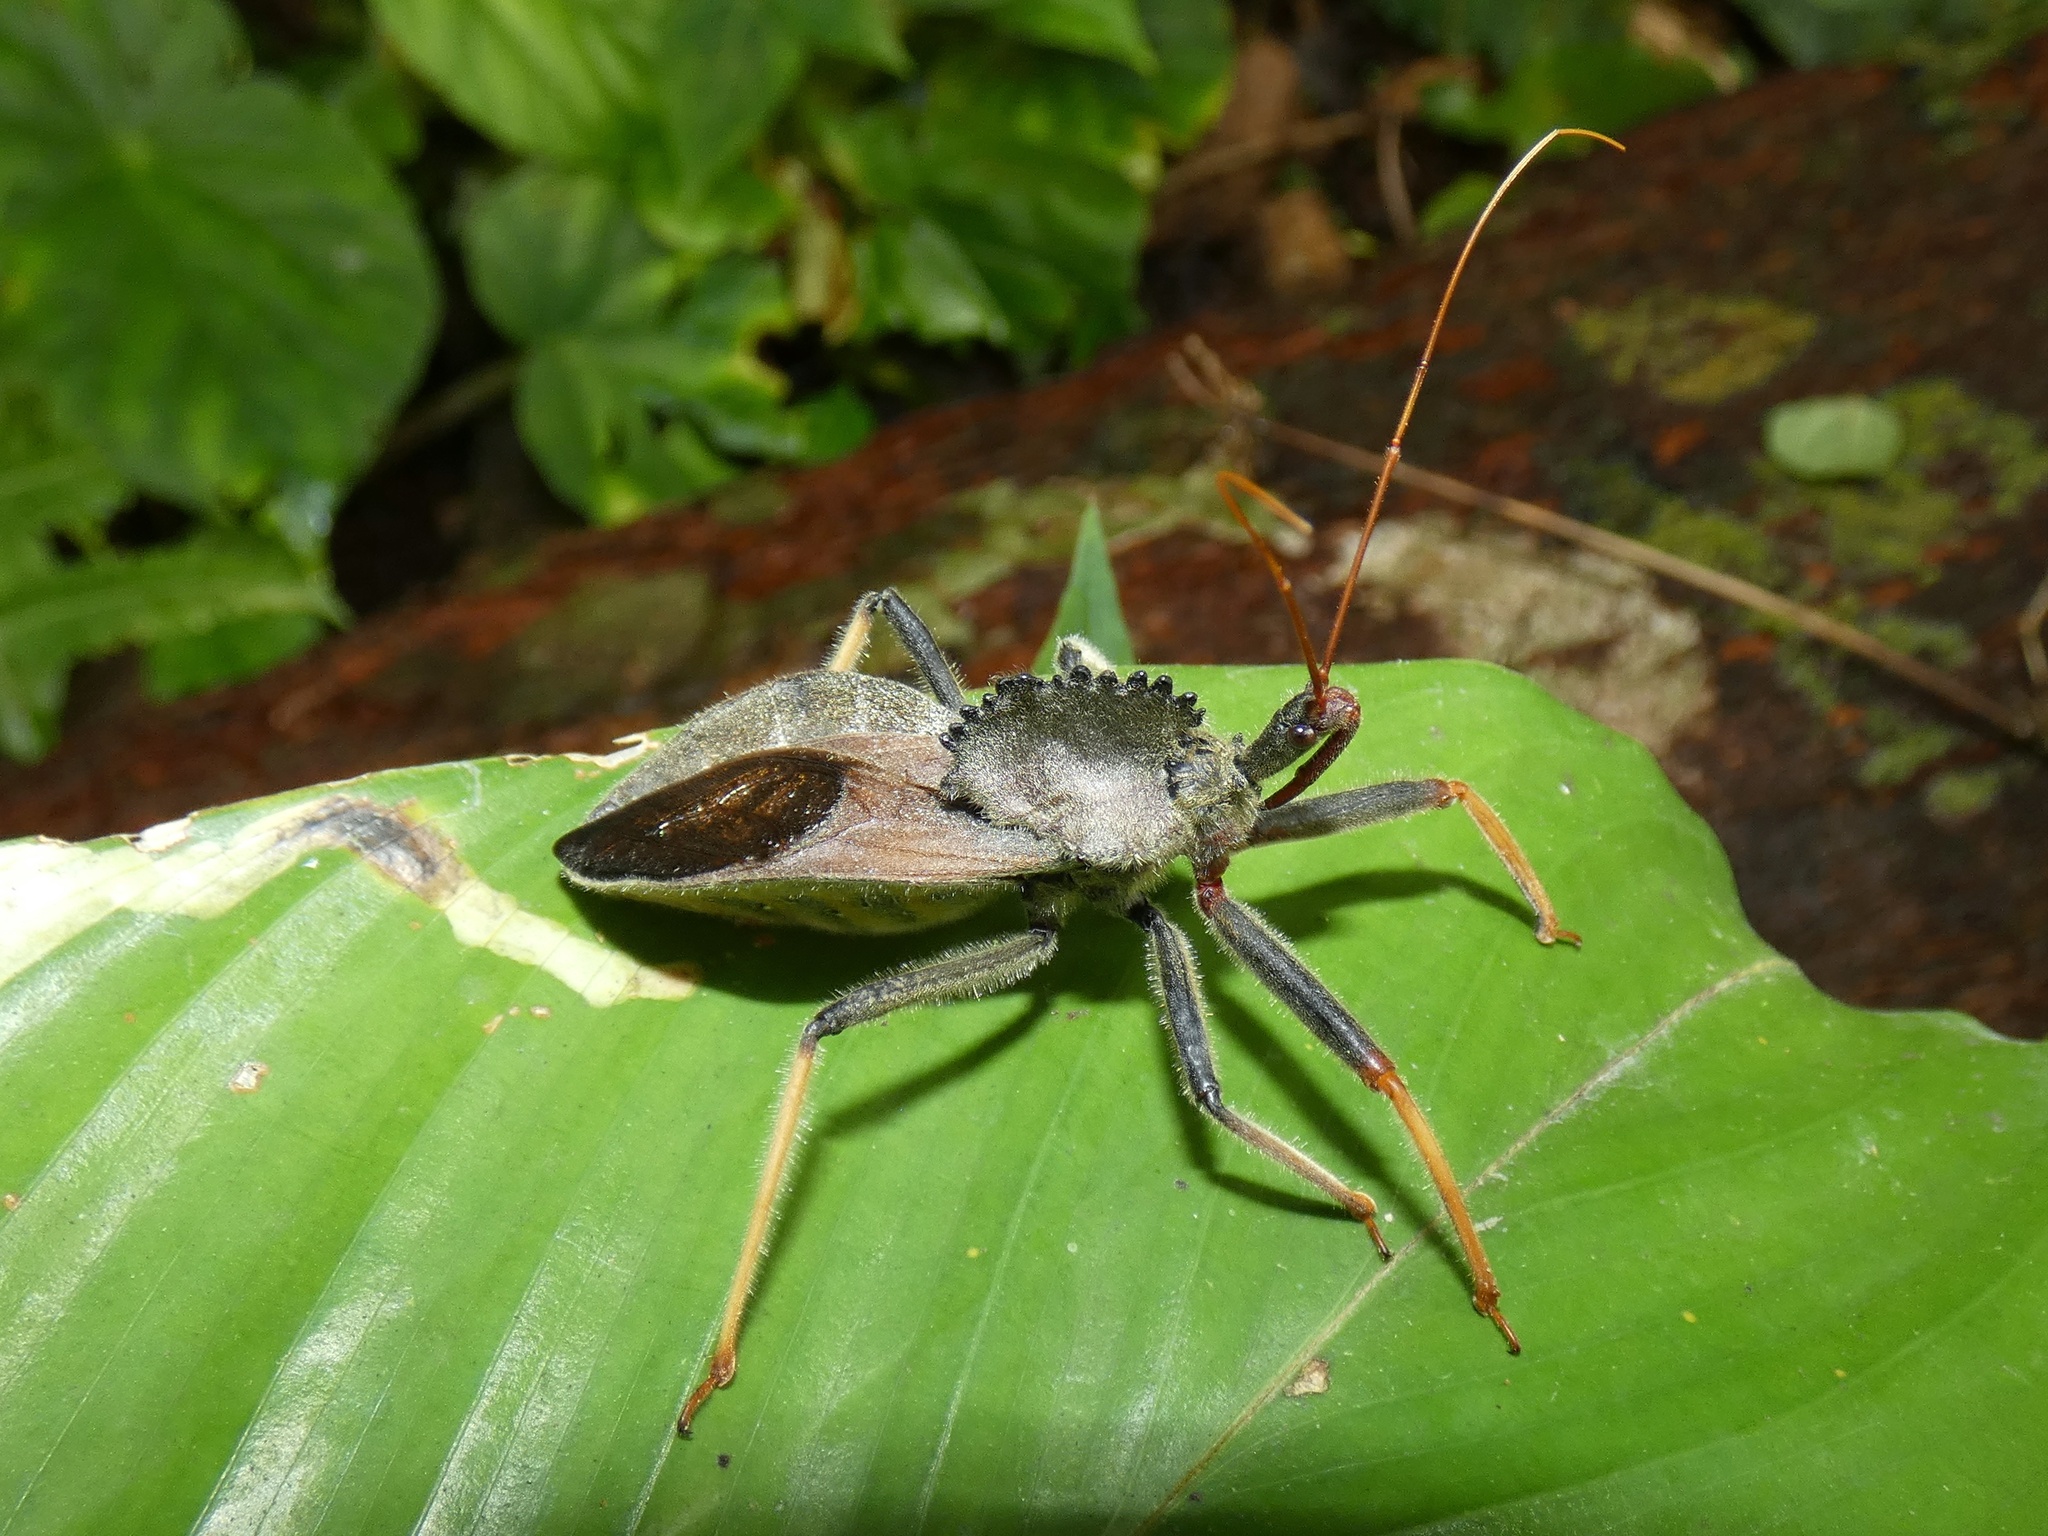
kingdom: Animalia
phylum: Arthropoda
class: Insecta
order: Hemiptera
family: Reduviidae
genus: Arilus
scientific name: Arilus carinatus
